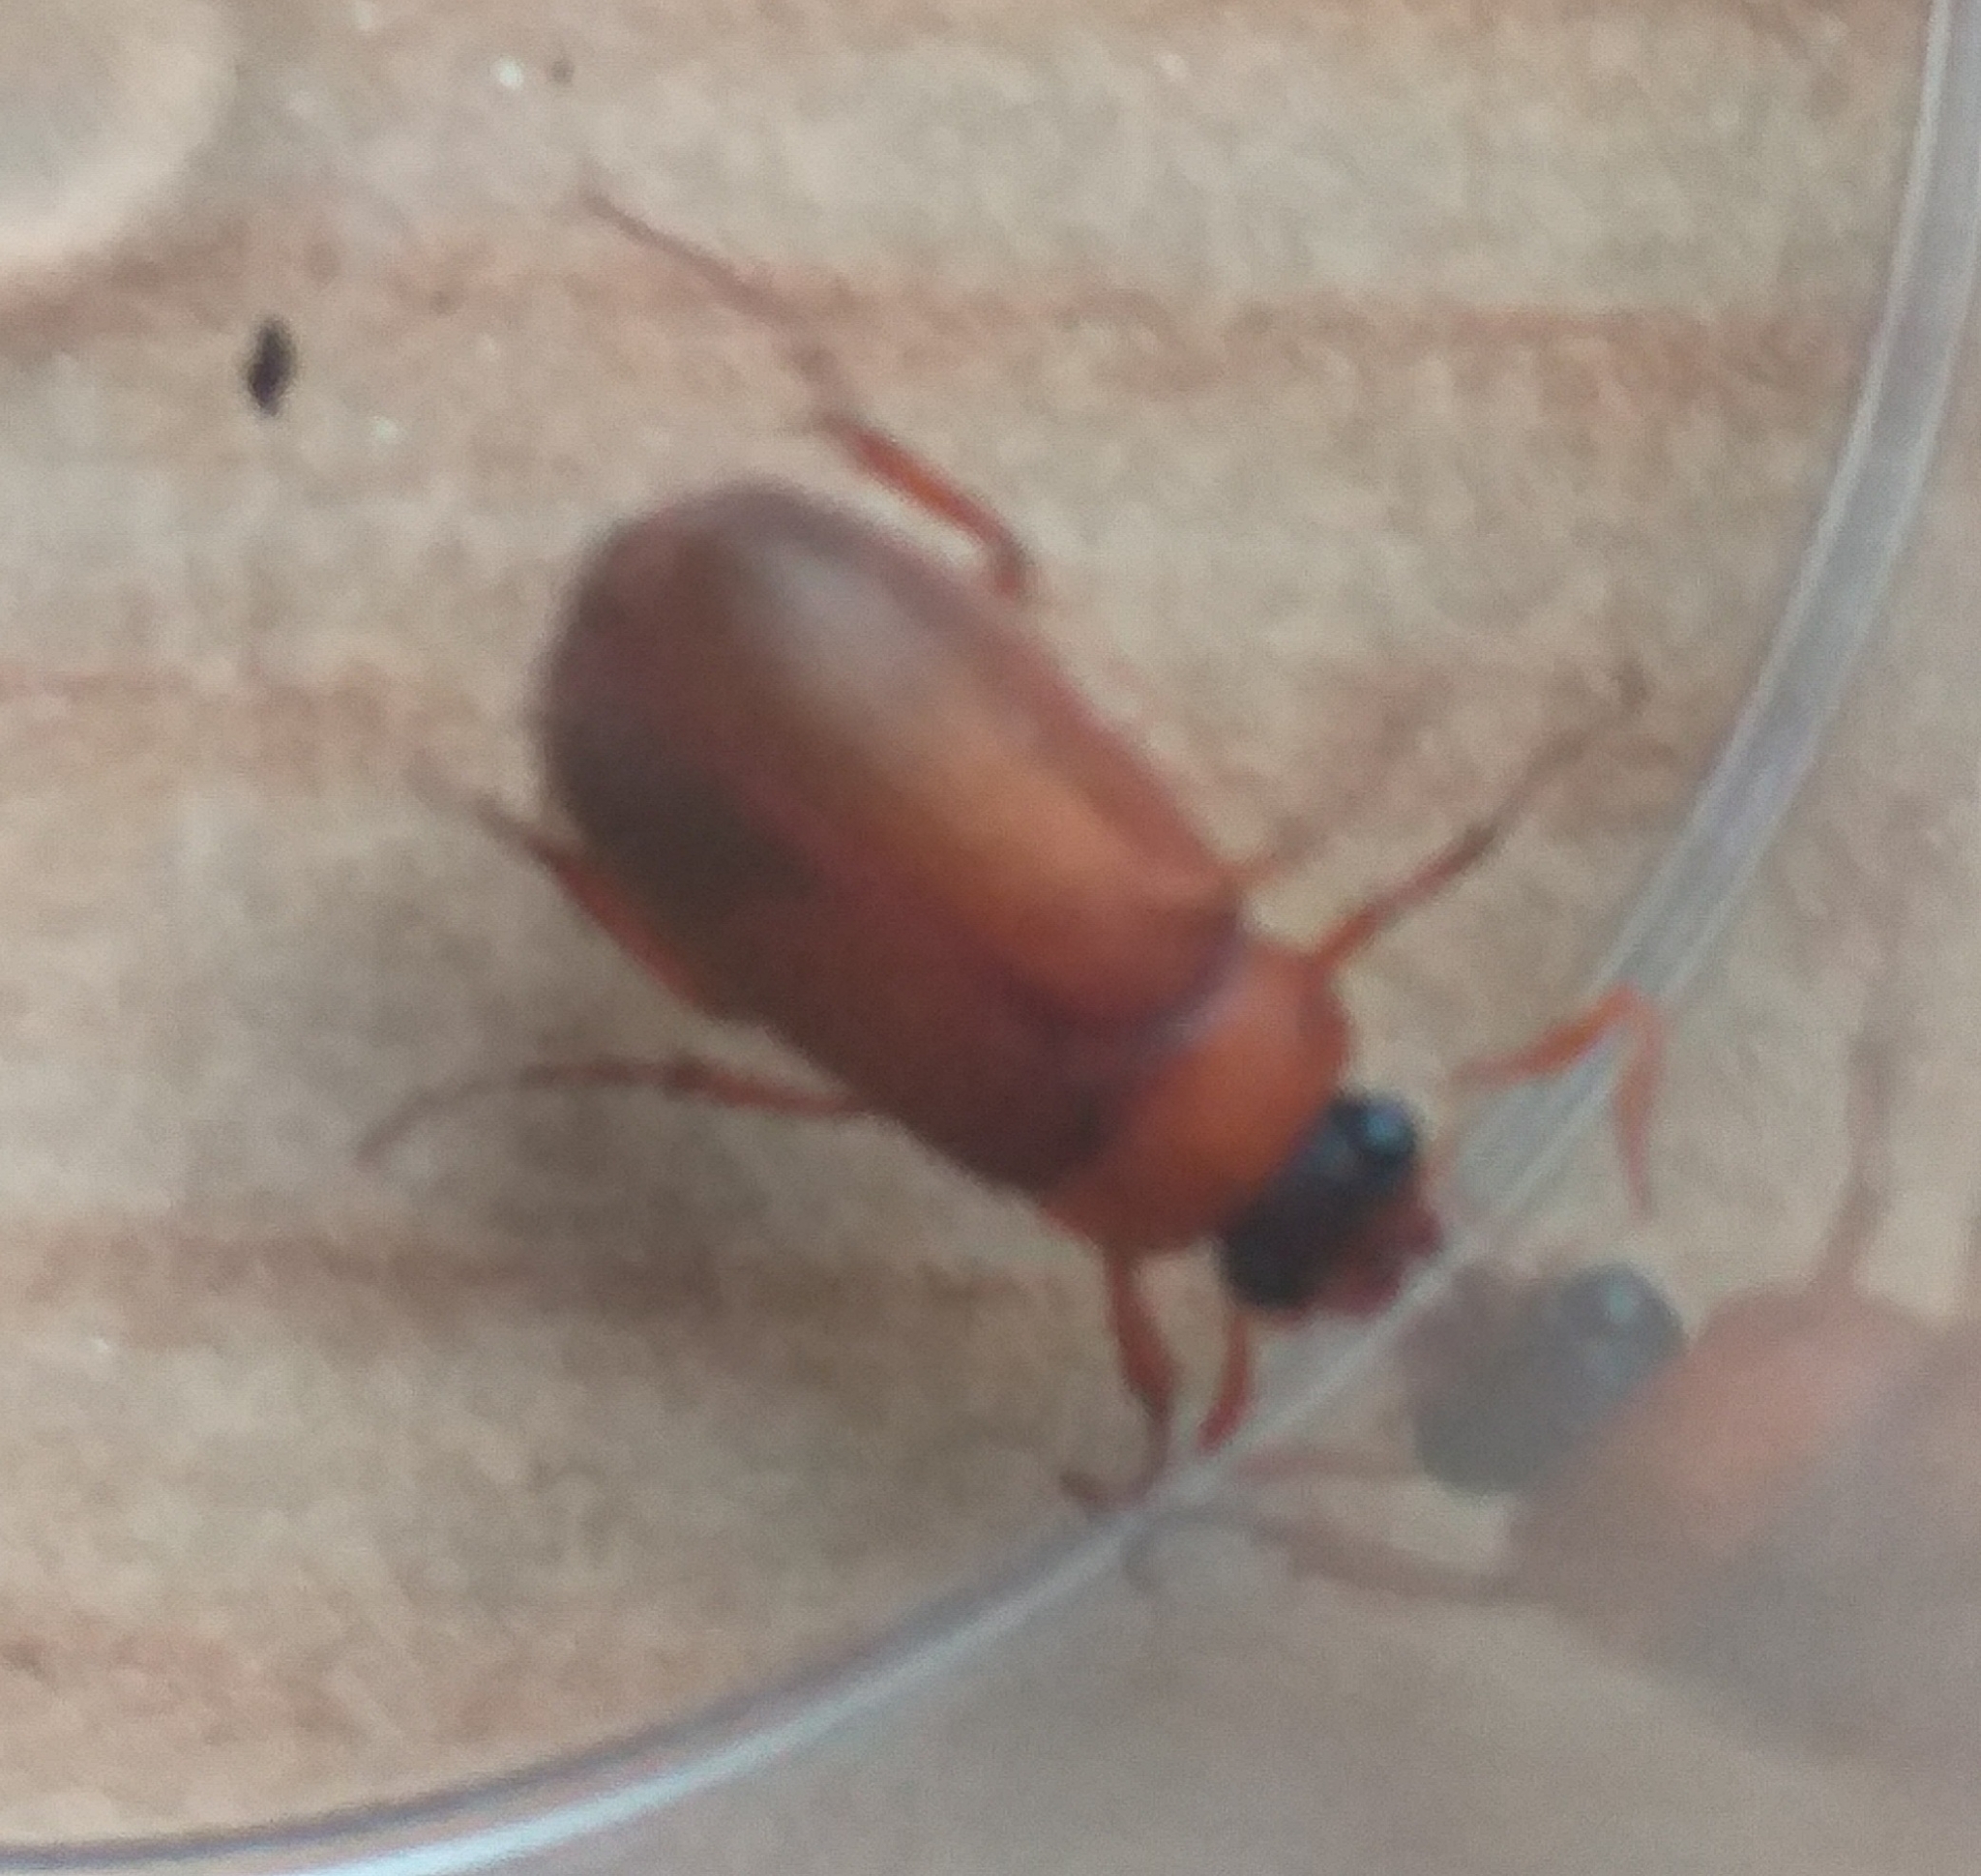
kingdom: Animalia
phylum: Arthropoda
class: Insecta
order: Coleoptera
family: Scarabaeidae
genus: Serica
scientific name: Serica brunnea
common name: Brown chafer
